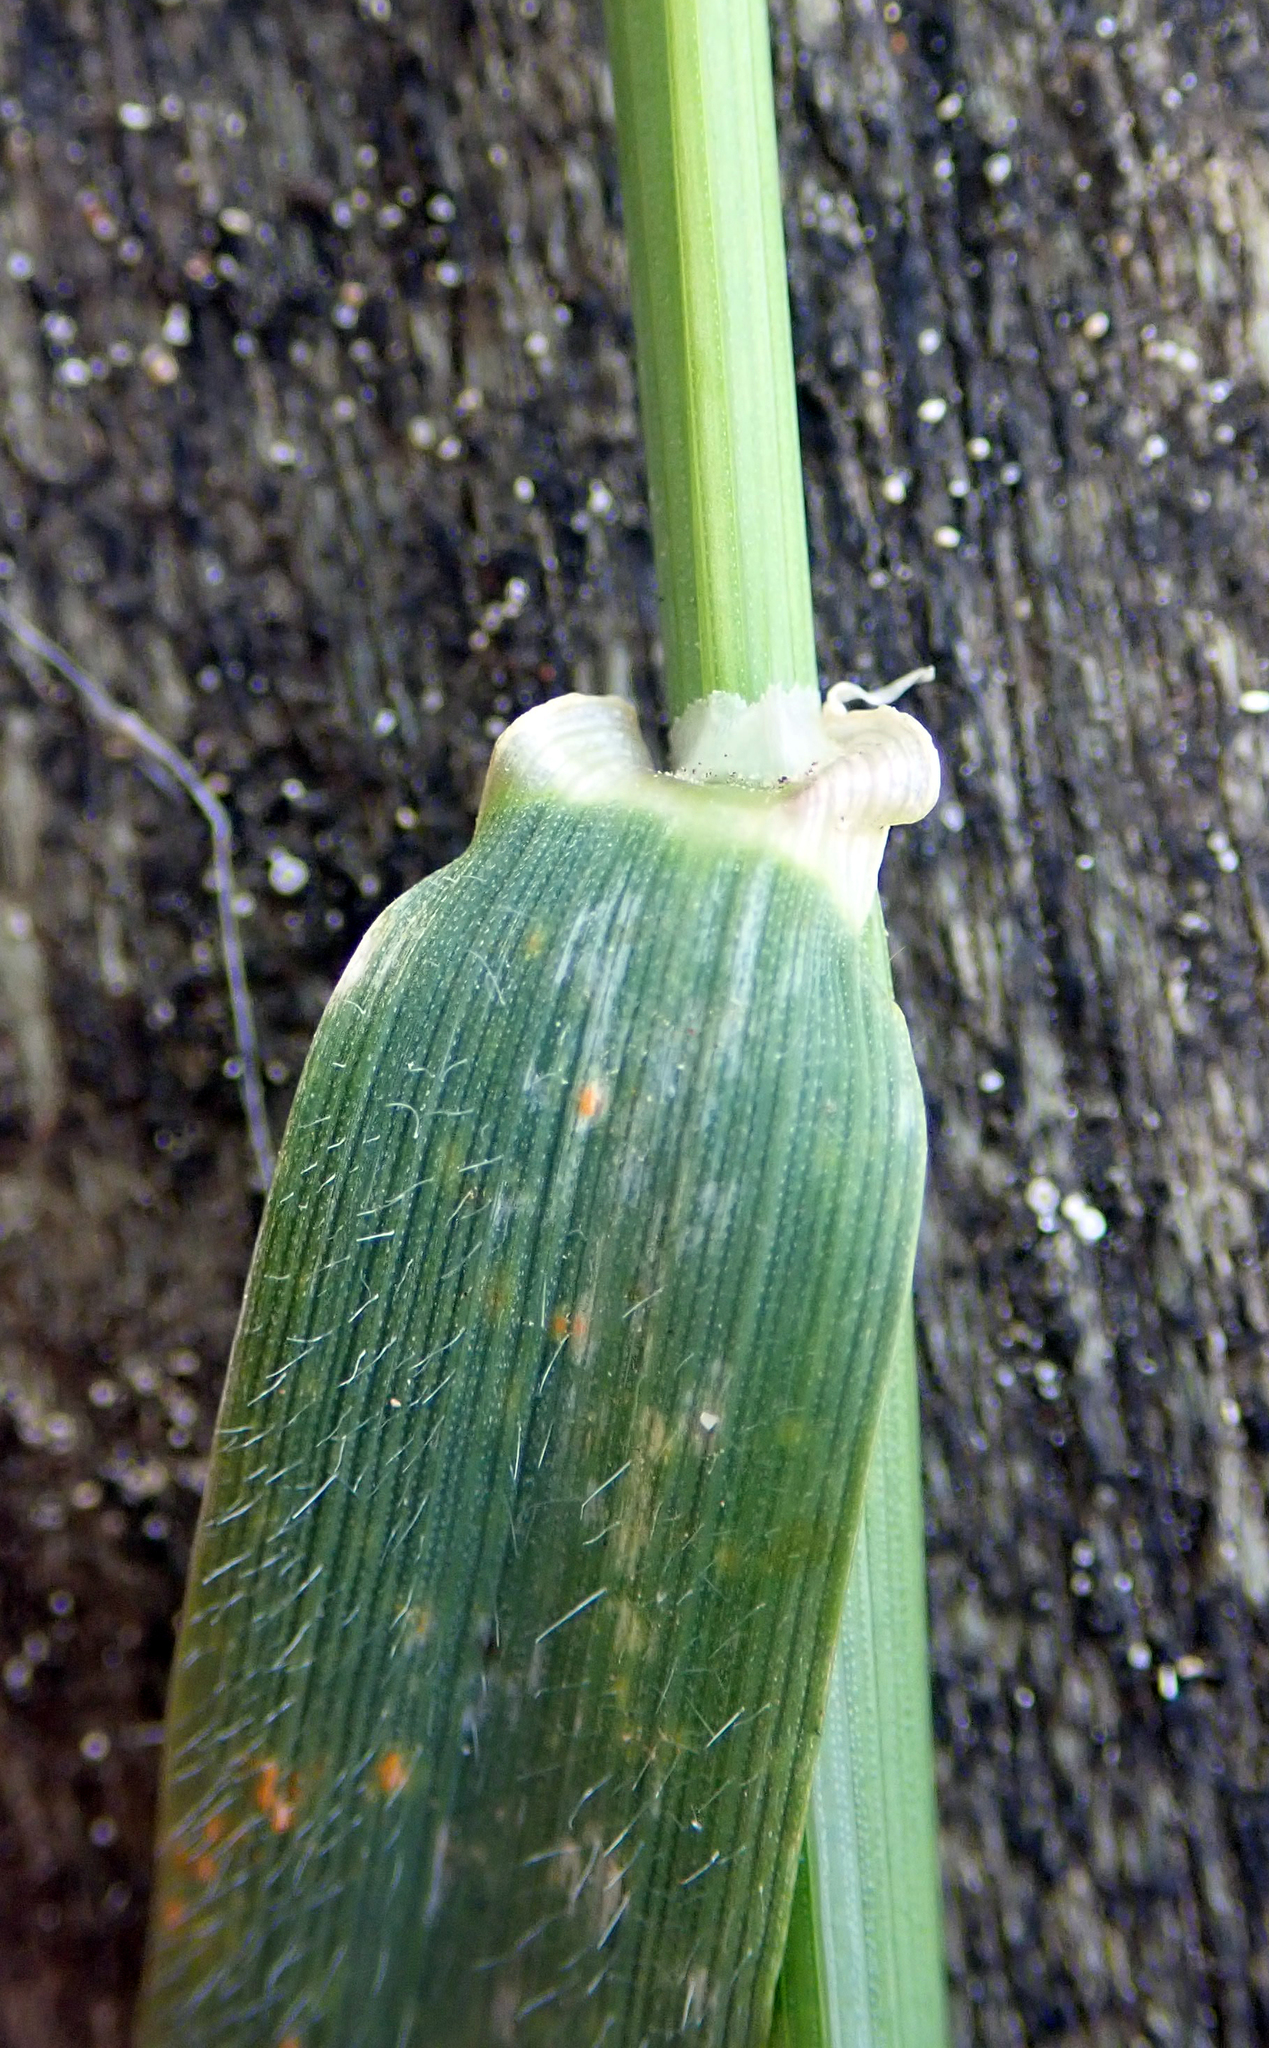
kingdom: Plantae
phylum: Tracheophyta
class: Liliopsida
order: Poales
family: Poaceae
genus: Hordeum
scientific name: Hordeum murinum
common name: Wall barley
